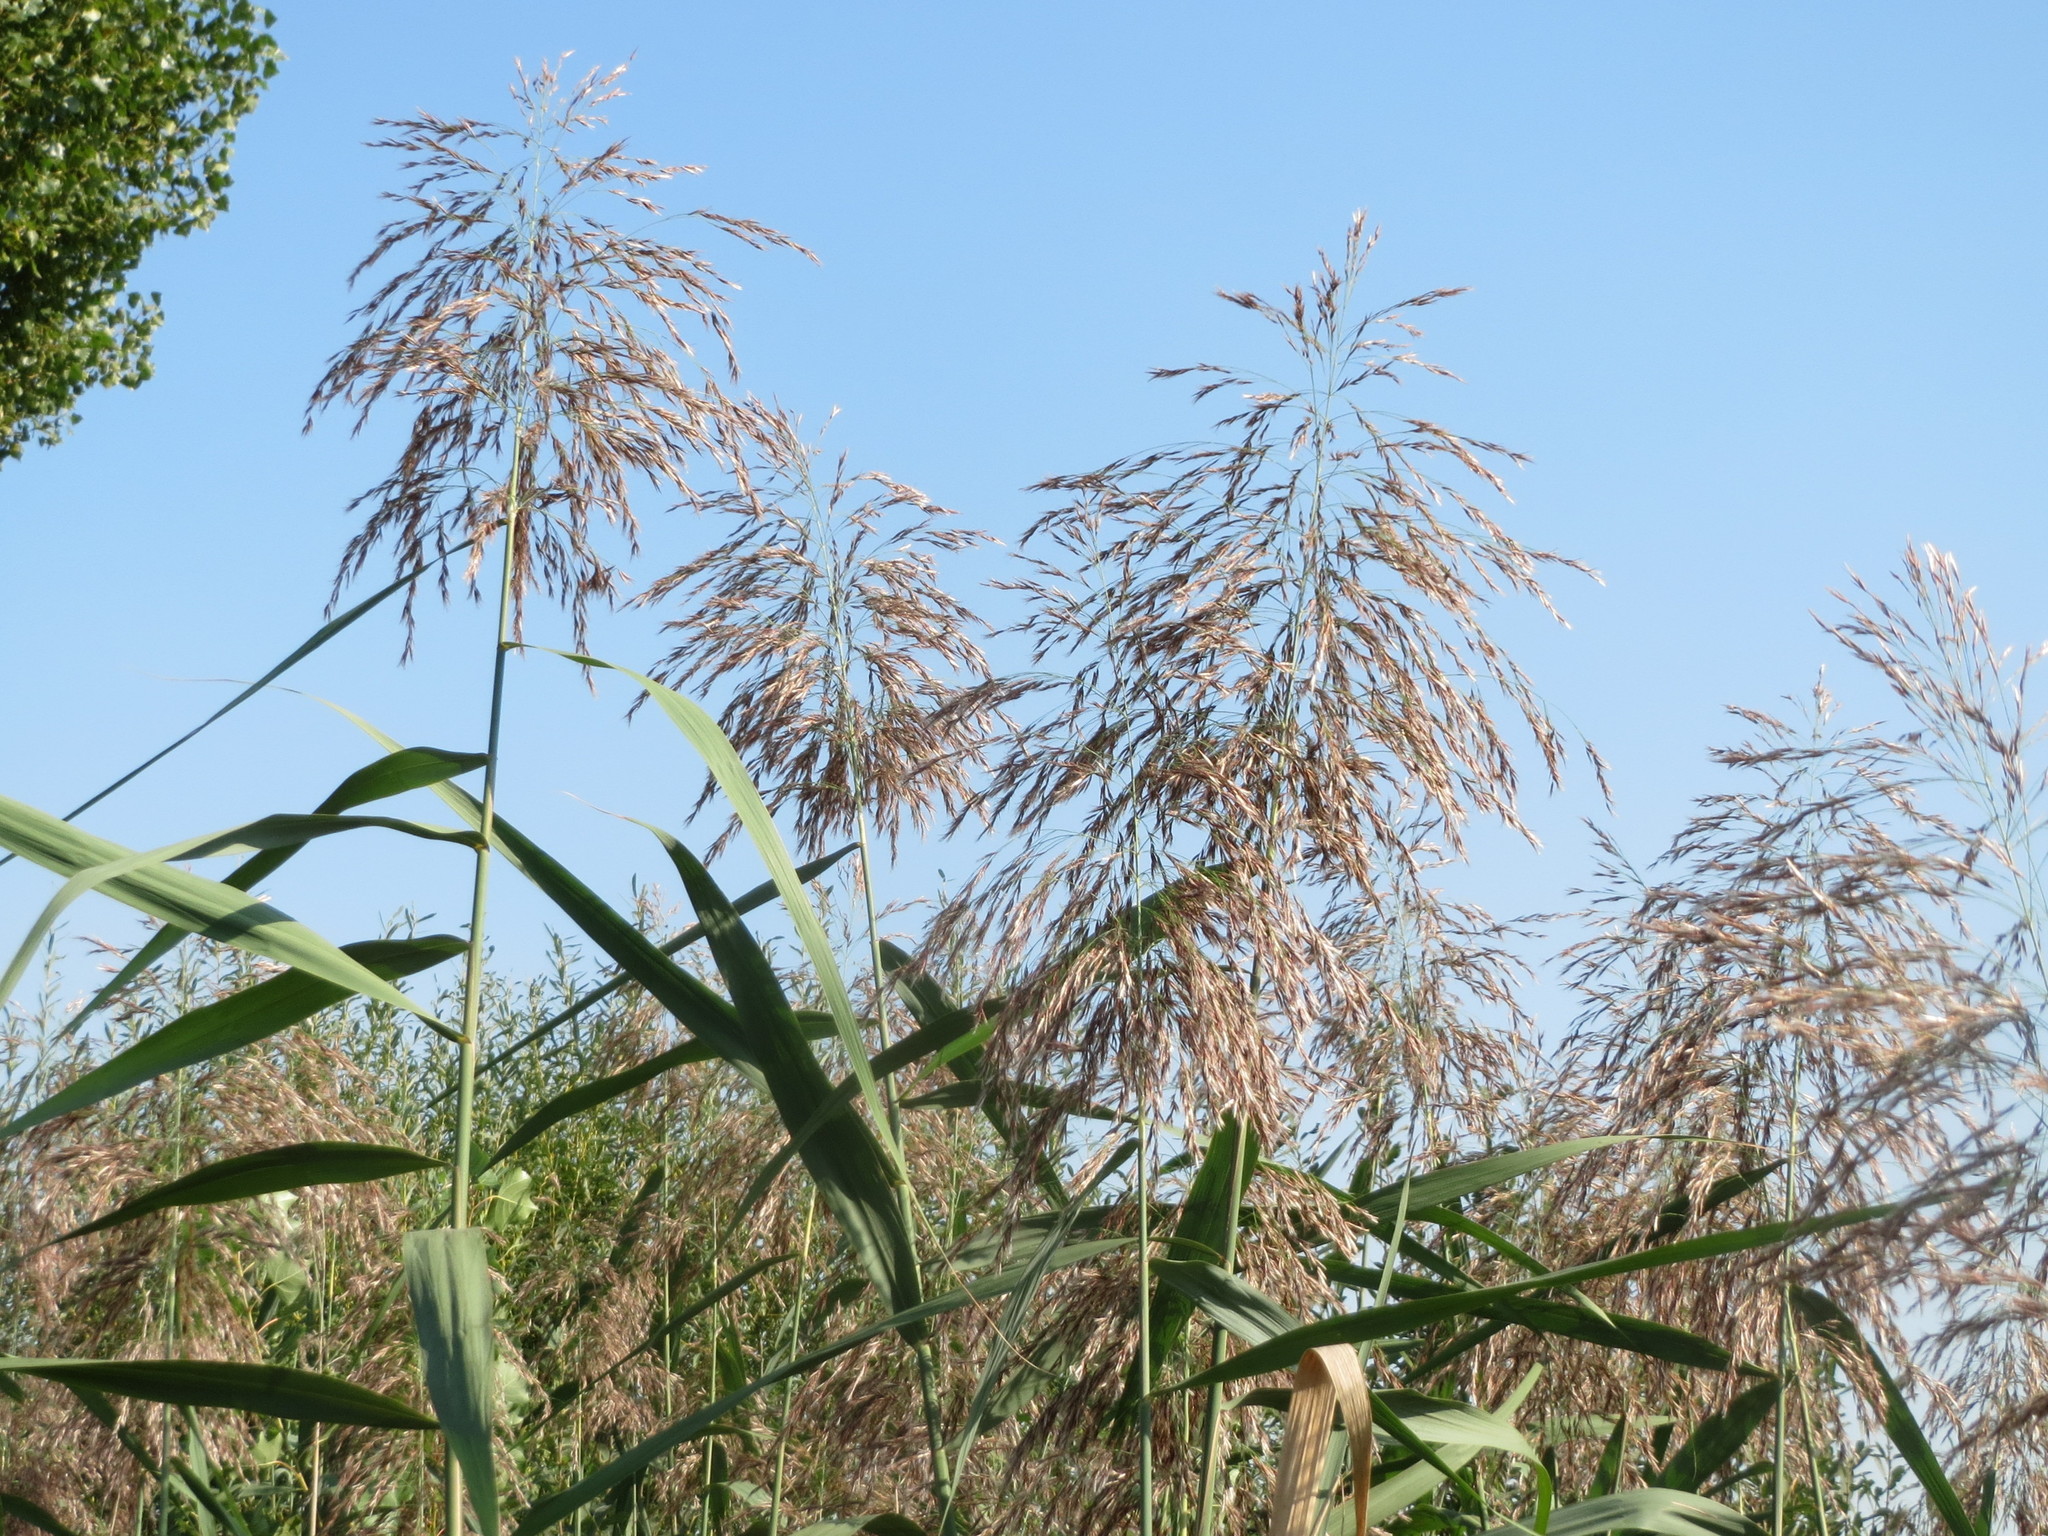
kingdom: Plantae
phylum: Tracheophyta
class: Liliopsida
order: Poales
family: Poaceae
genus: Phragmites
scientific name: Phragmites australis
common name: Common reed
